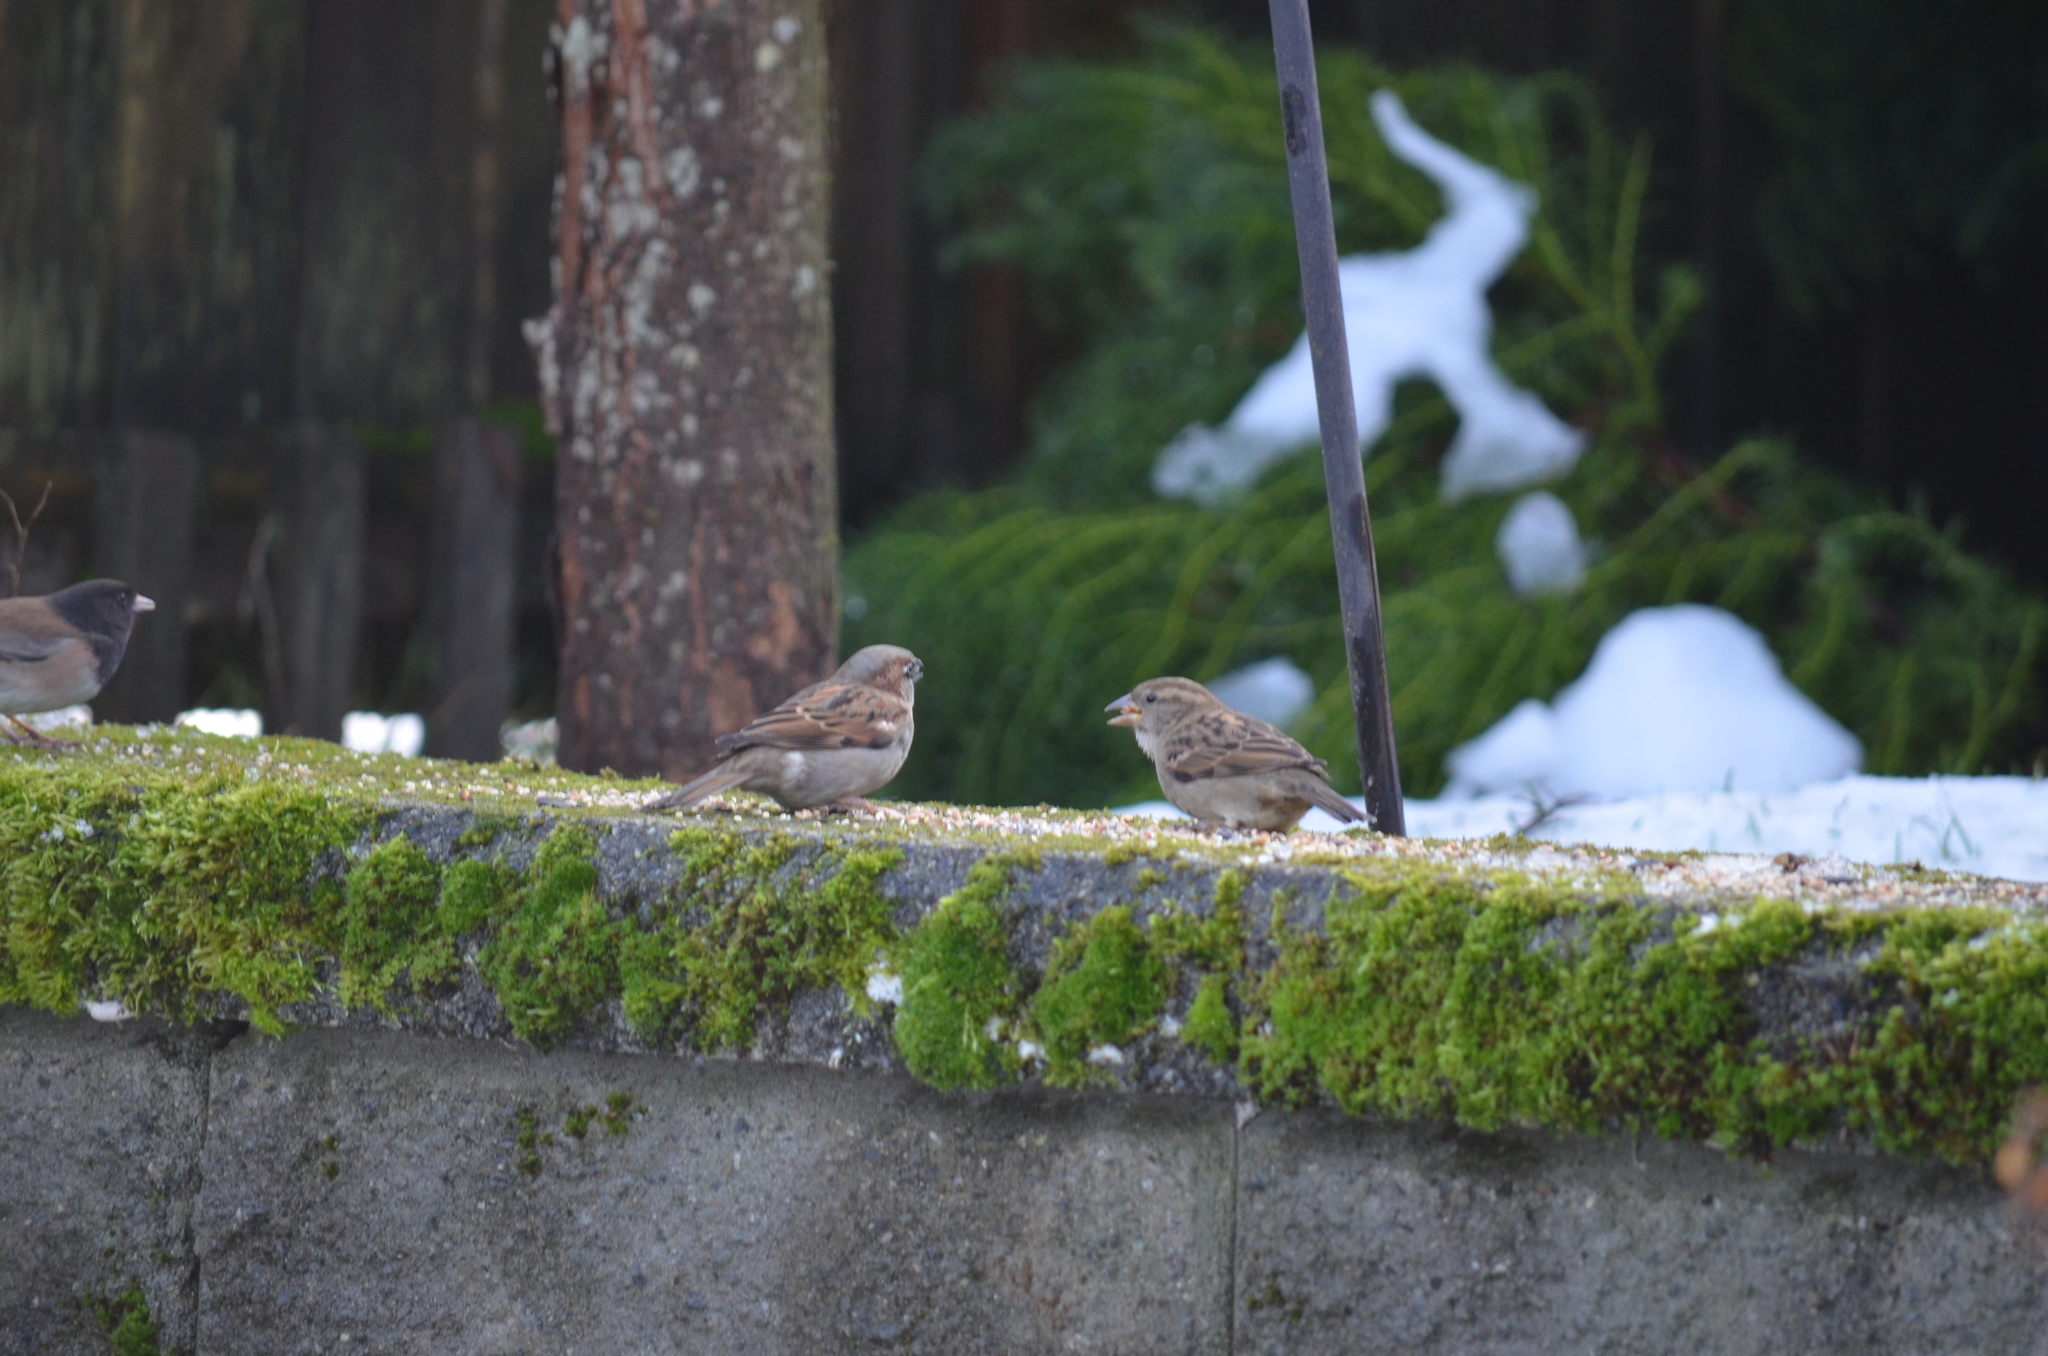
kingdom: Animalia
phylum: Chordata
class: Aves
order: Passeriformes
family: Passeridae
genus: Passer
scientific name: Passer domesticus
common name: House sparrow
